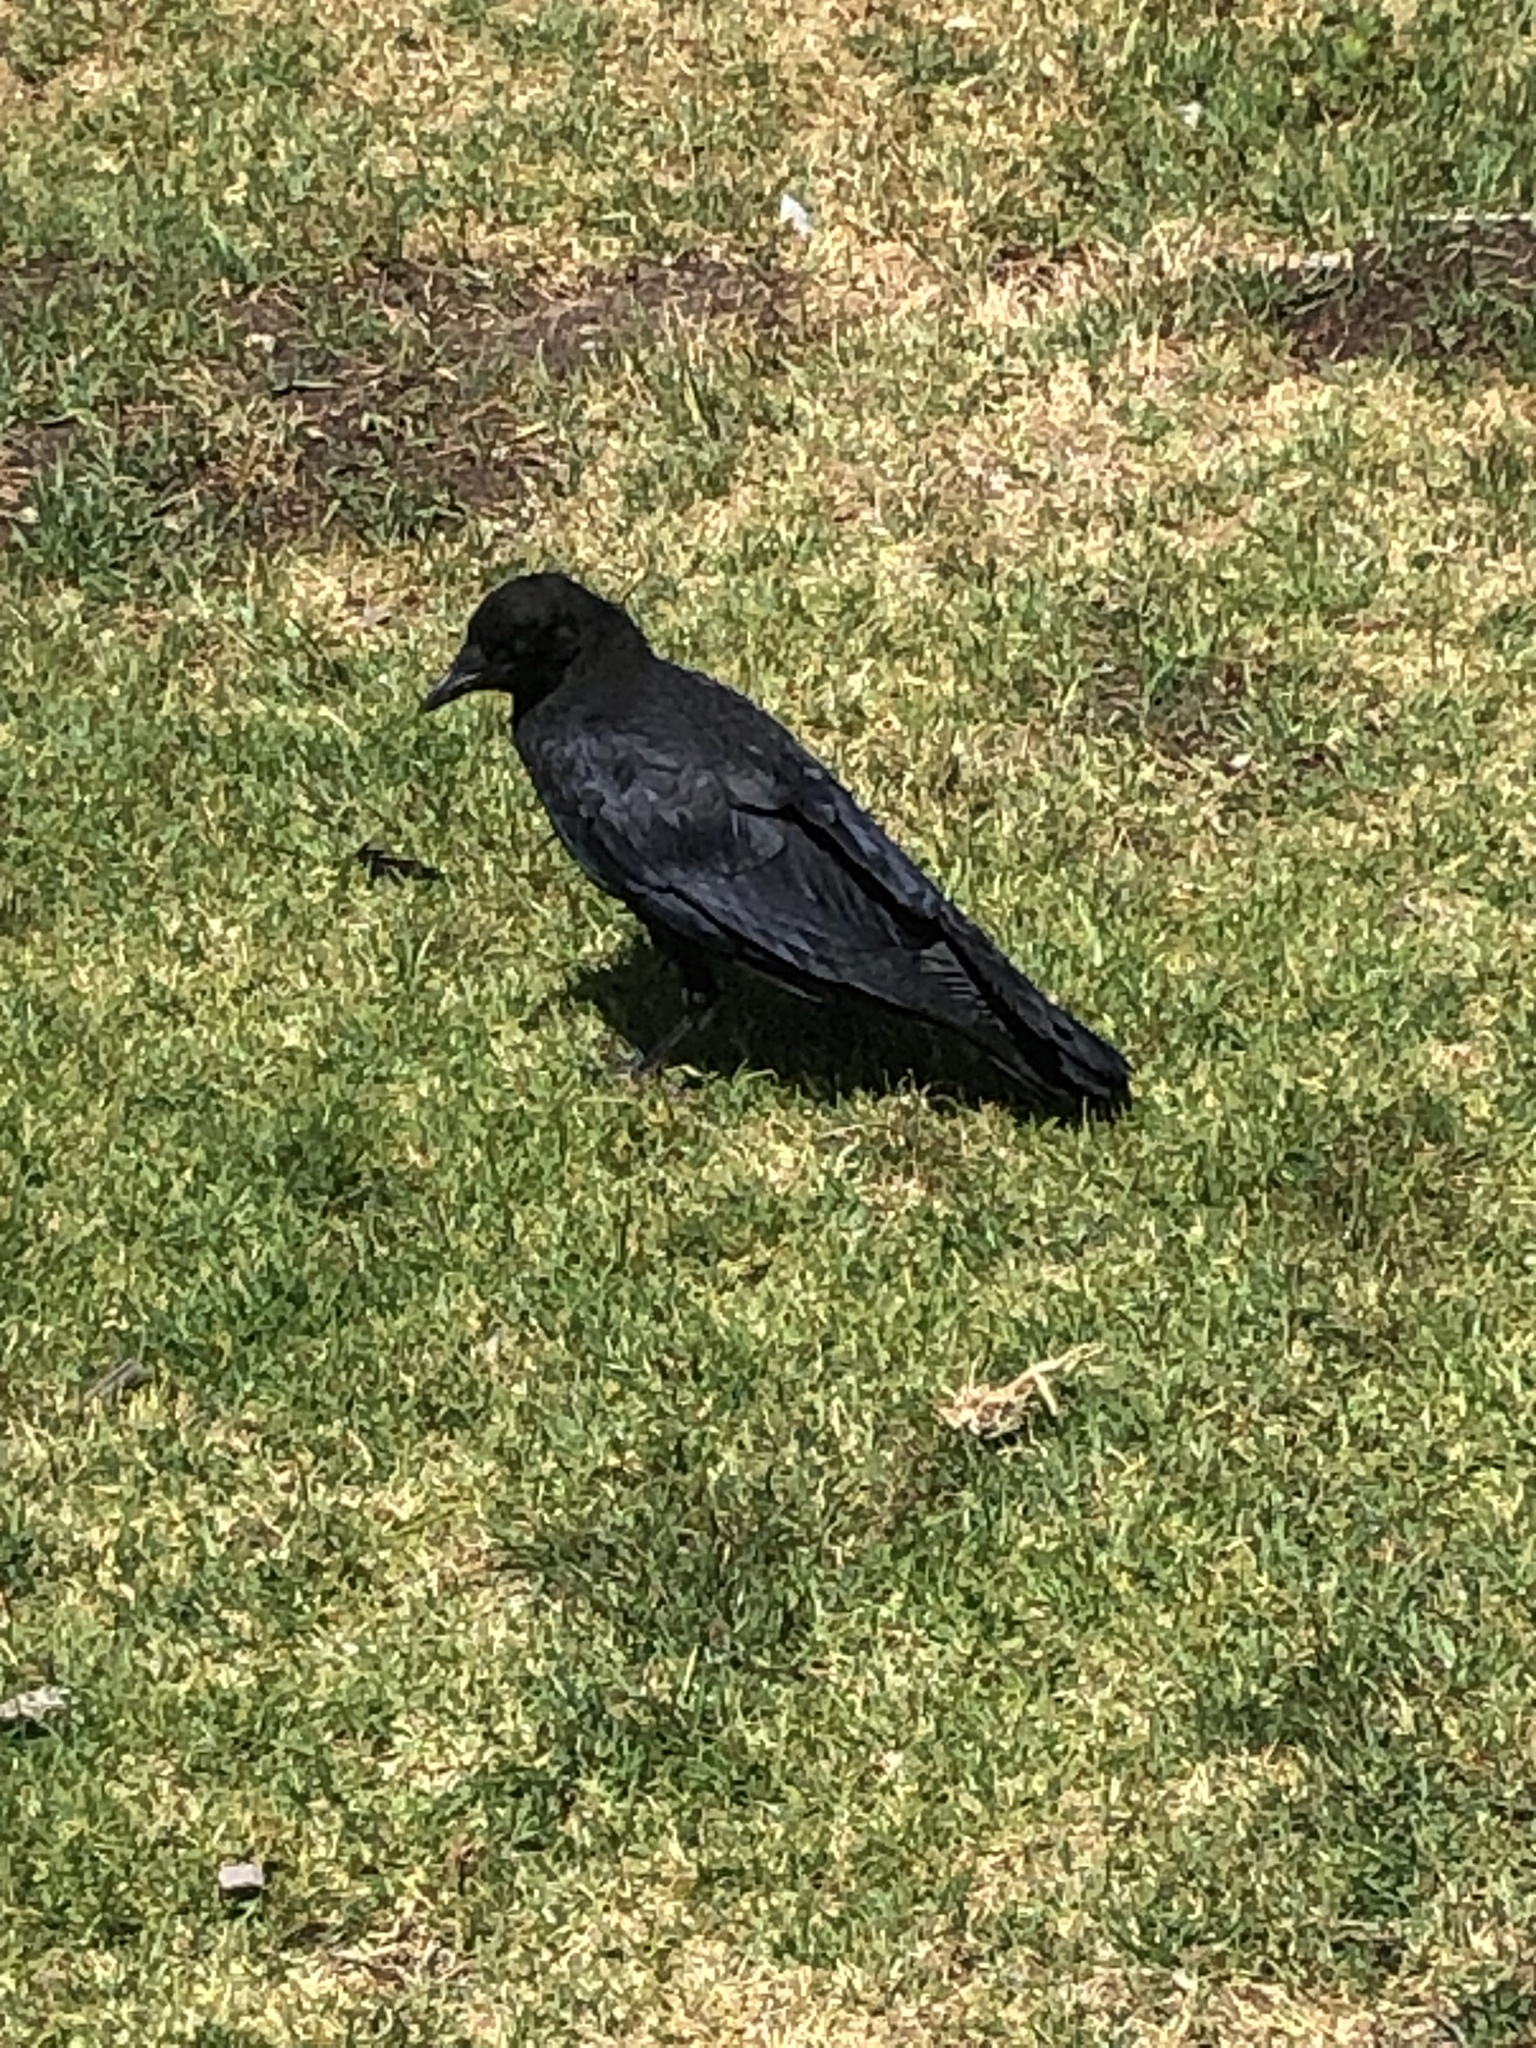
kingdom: Animalia
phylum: Chordata
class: Aves
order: Passeriformes
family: Corvidae
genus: Corvus
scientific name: Corvus brachyrhynchos
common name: American crow
